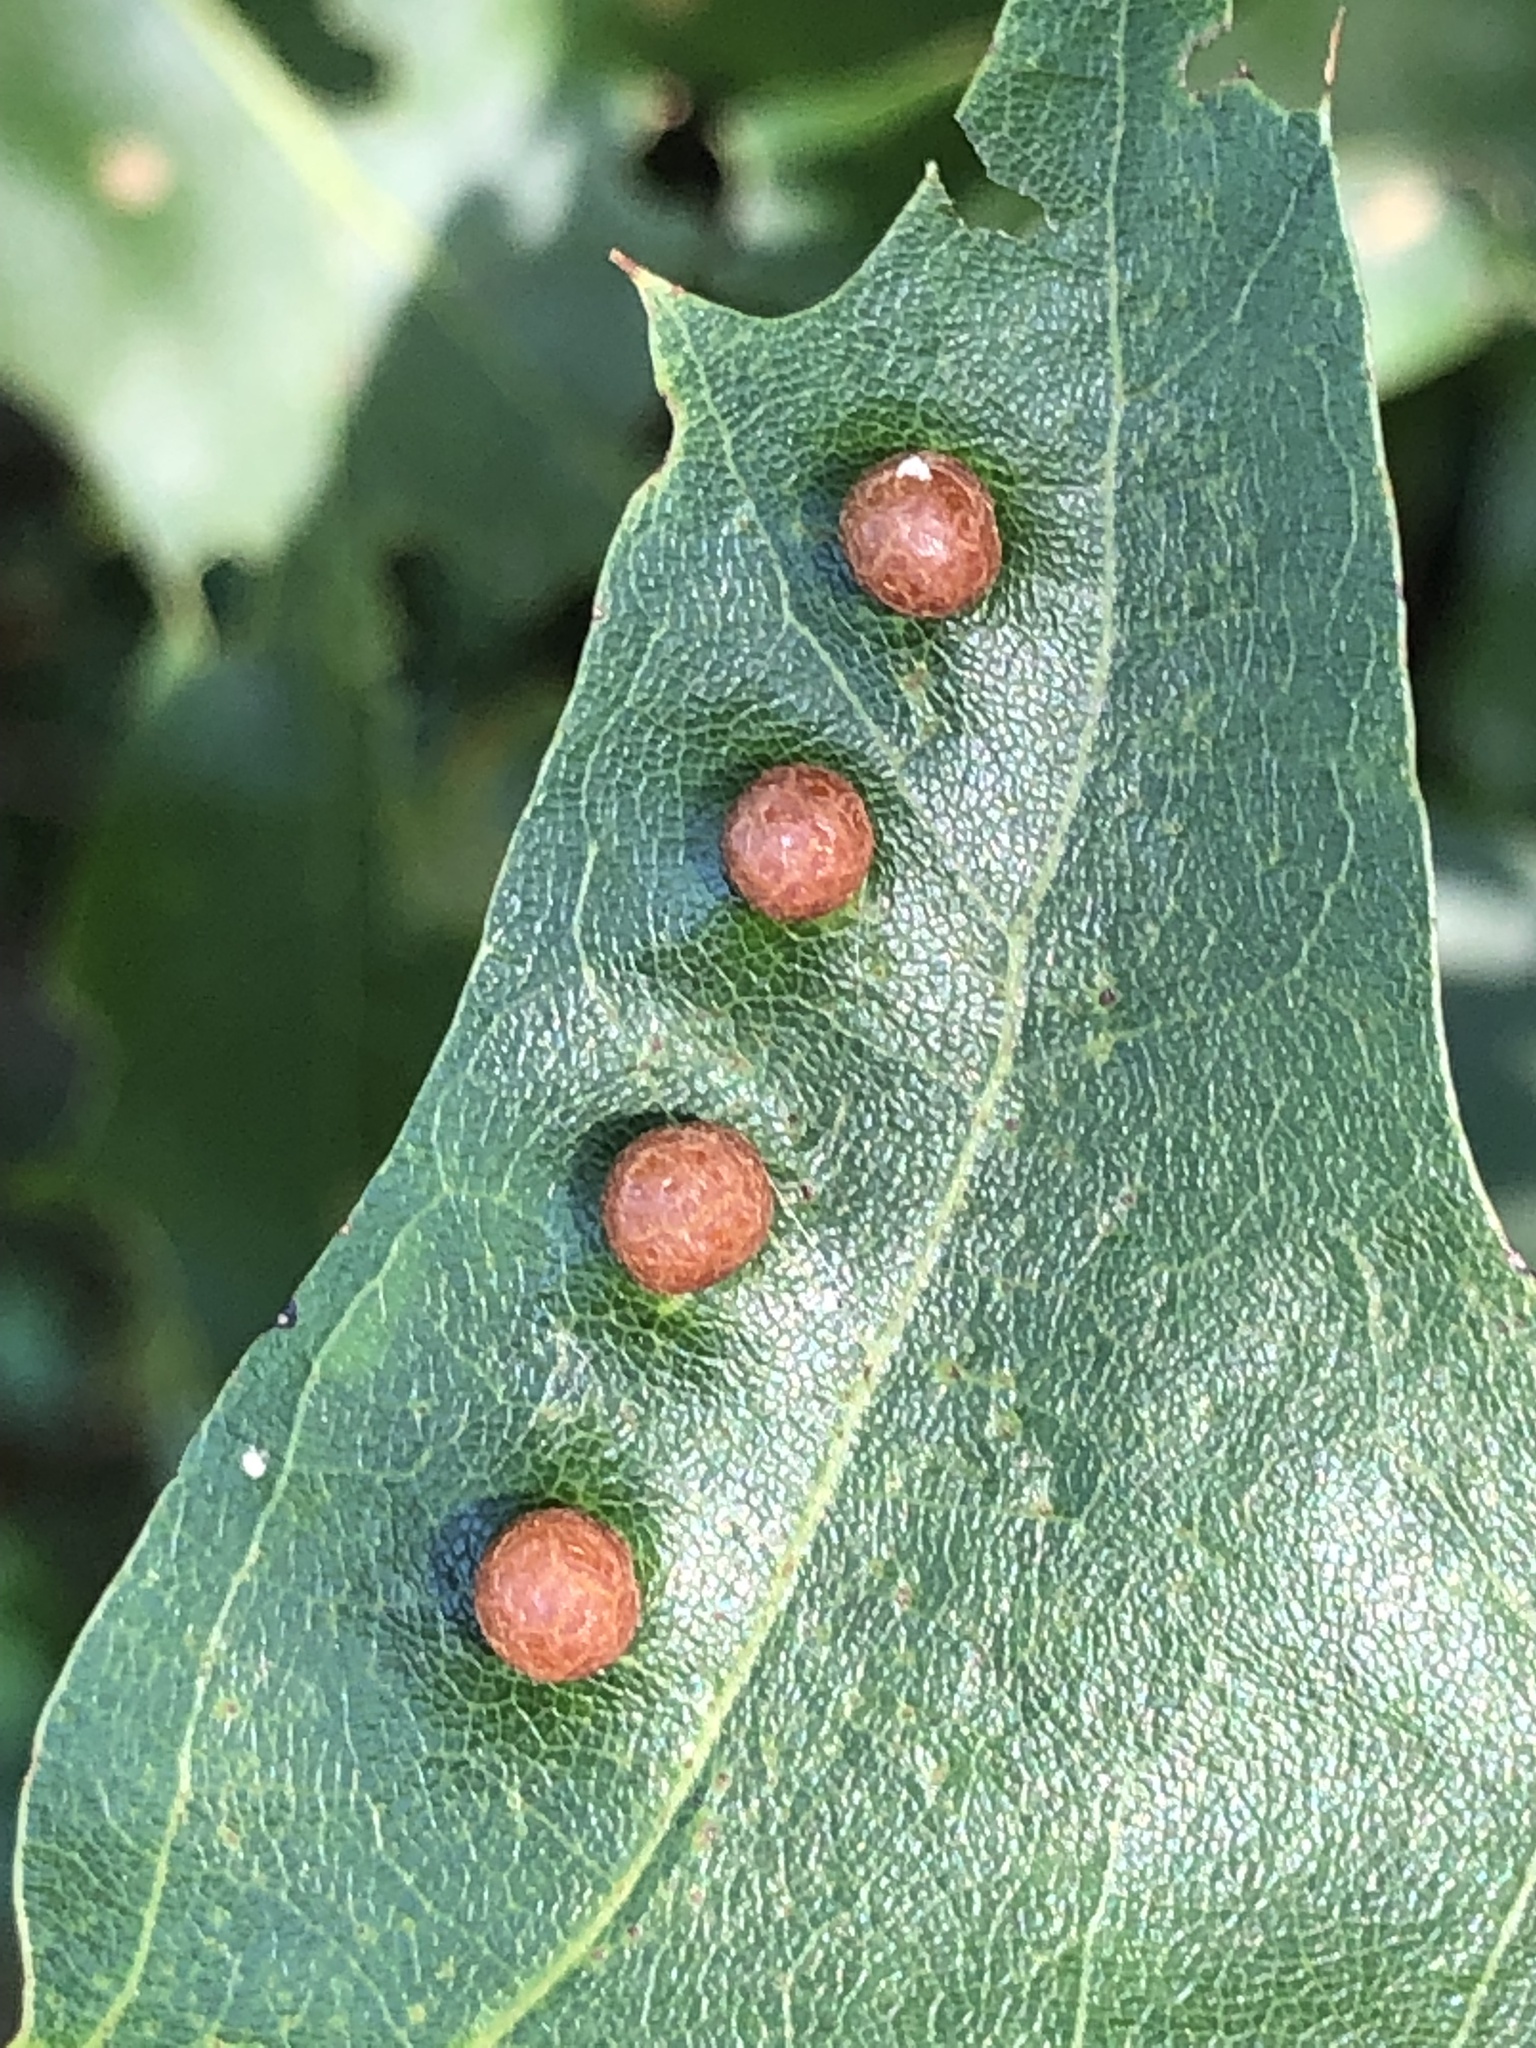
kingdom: Animalia
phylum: Arthropoda
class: Insecta
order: Diptera
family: Cecidomyiidae
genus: Polystepha
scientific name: Polystepha pilulae
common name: Oak leaf gall midge
